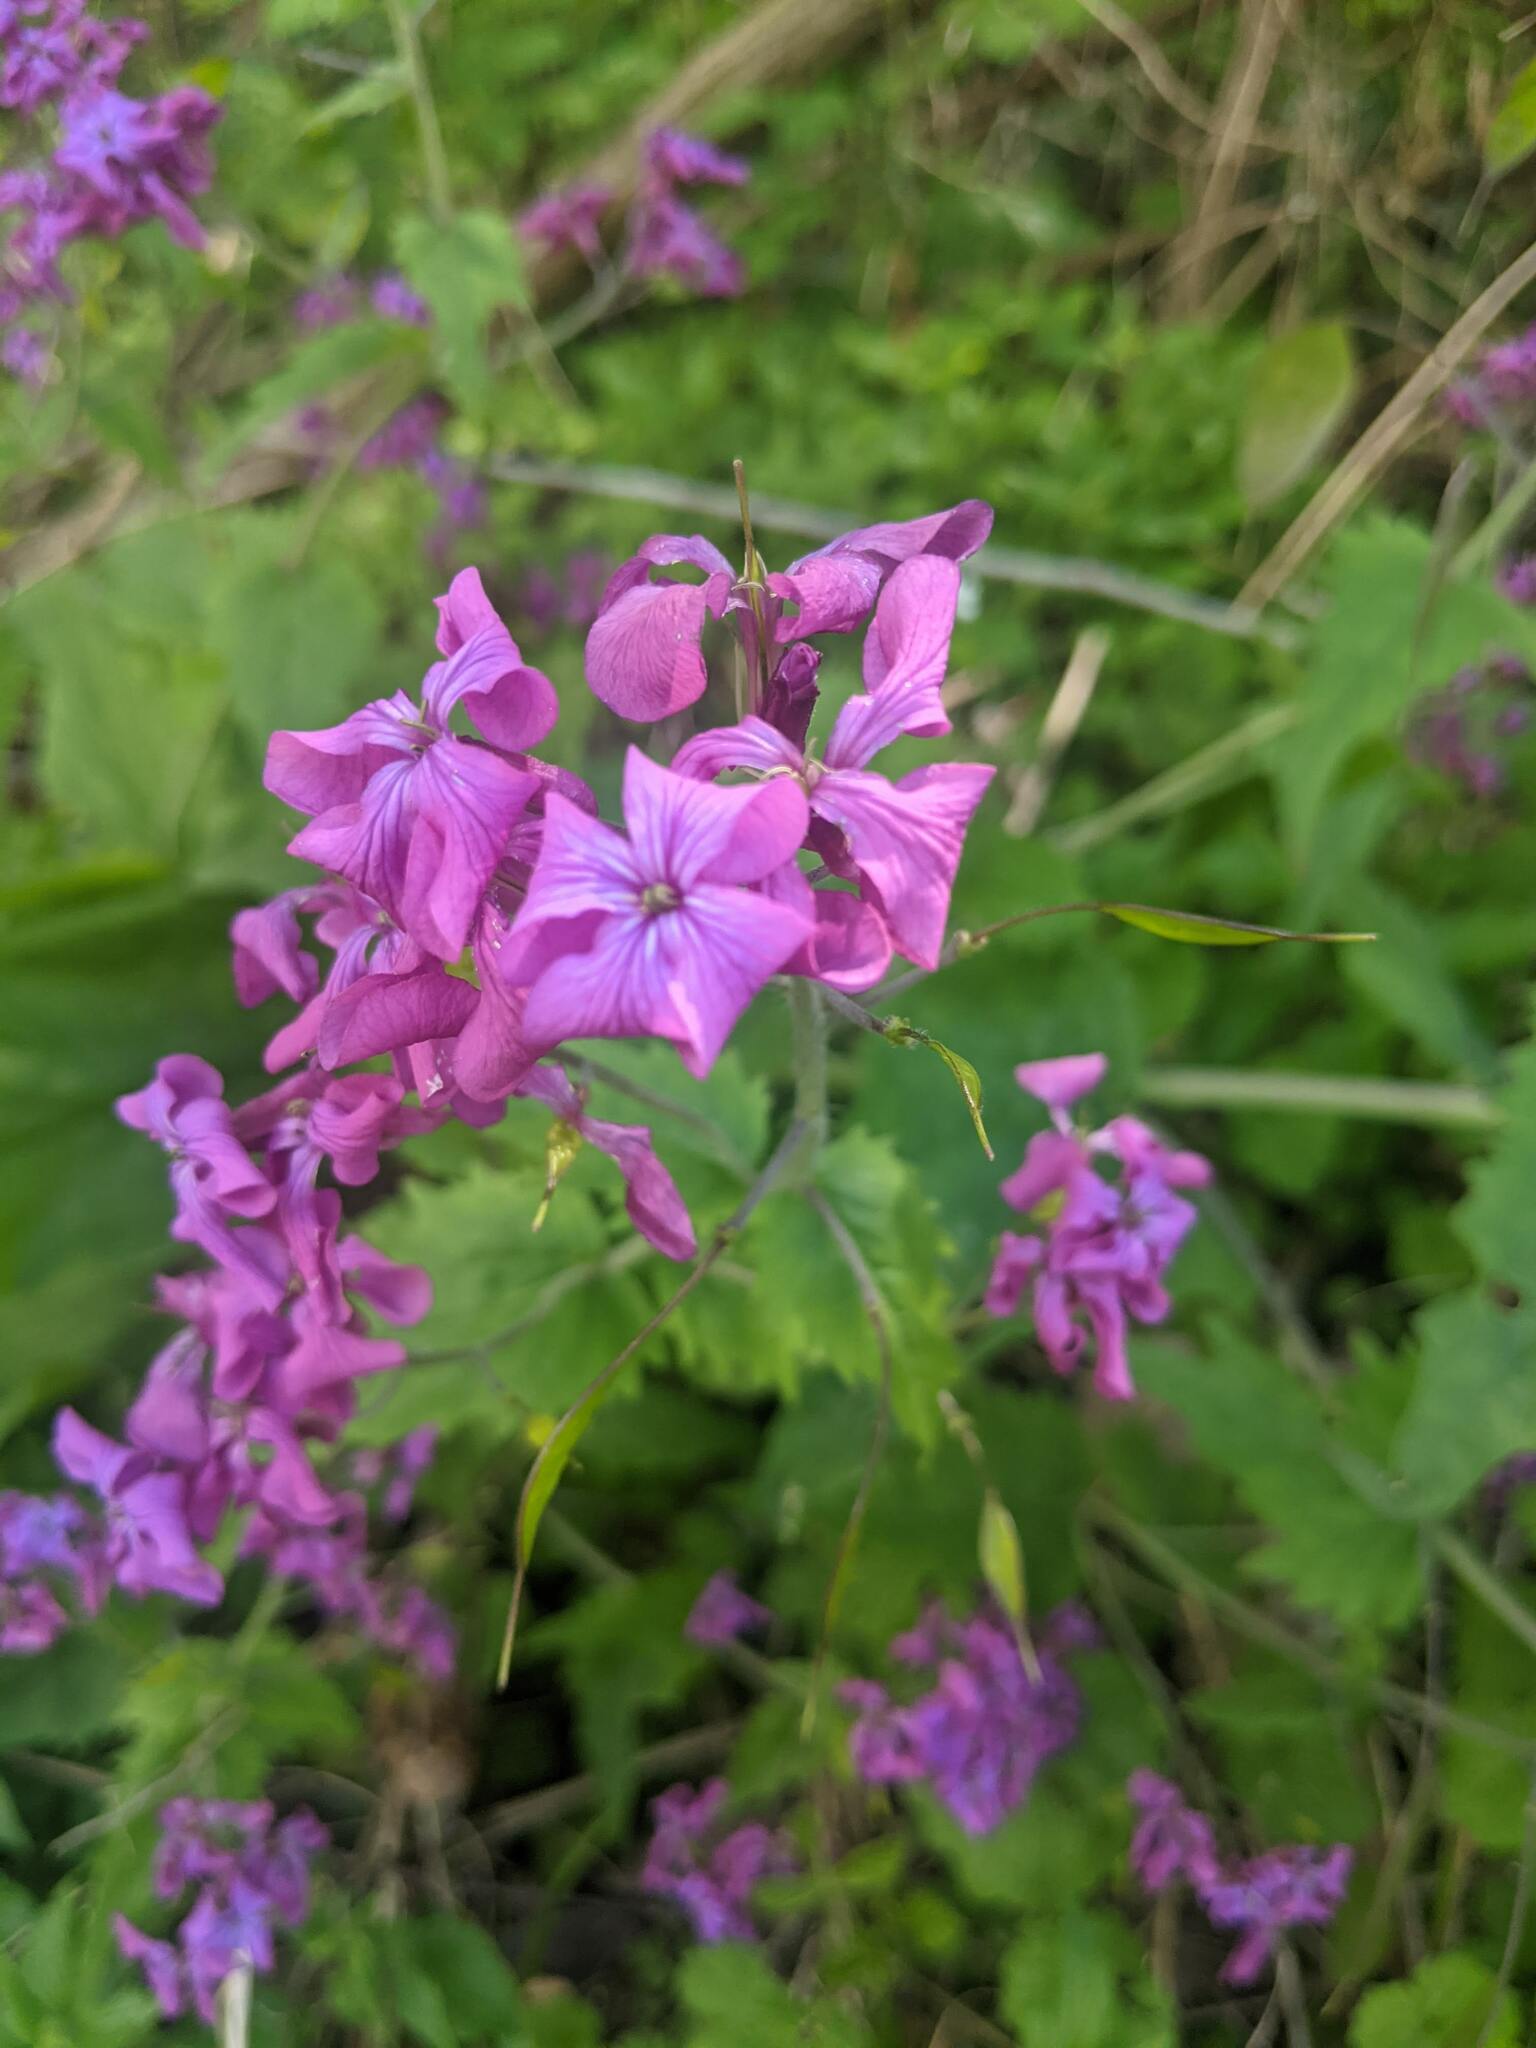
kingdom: Plantae
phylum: Tracheophyta
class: Magnoliopsida
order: Brassicales
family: Brassicaceae
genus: Lunaria
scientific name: Lunaria annua
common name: Honesty
